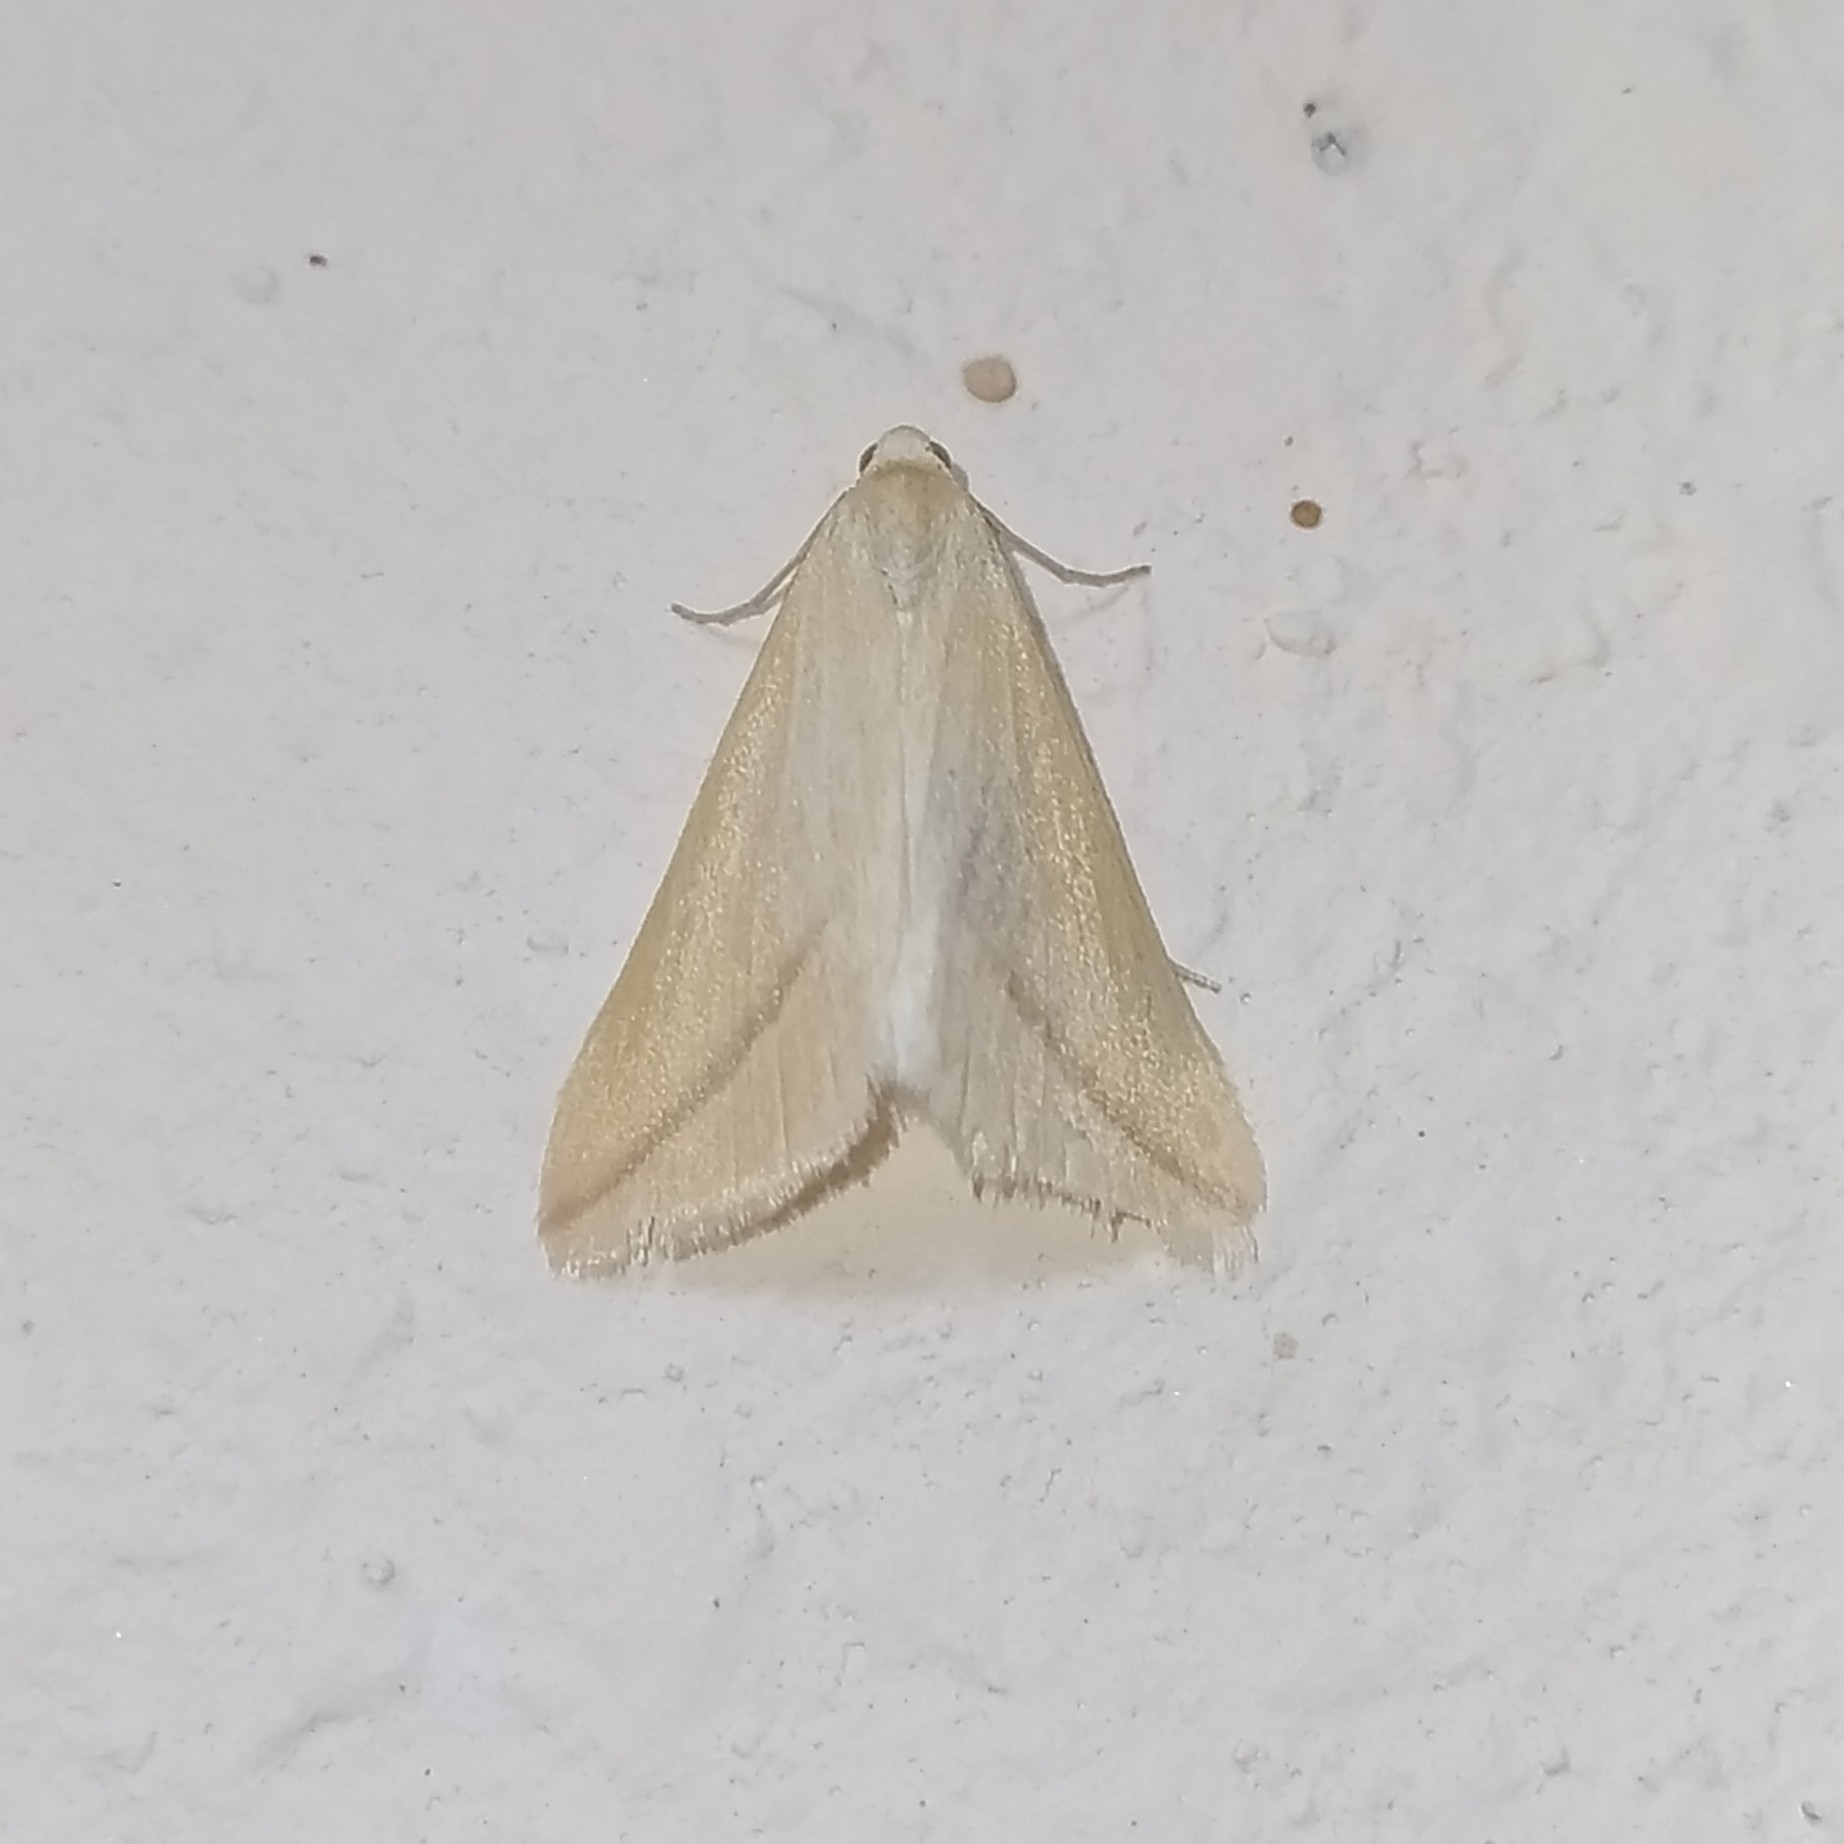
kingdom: Animalia
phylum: Arthropoda
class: Insecta
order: Lepidoptera
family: Geometridae
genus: Rhodometra
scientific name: Rhodometra sacraria
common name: Vestal
